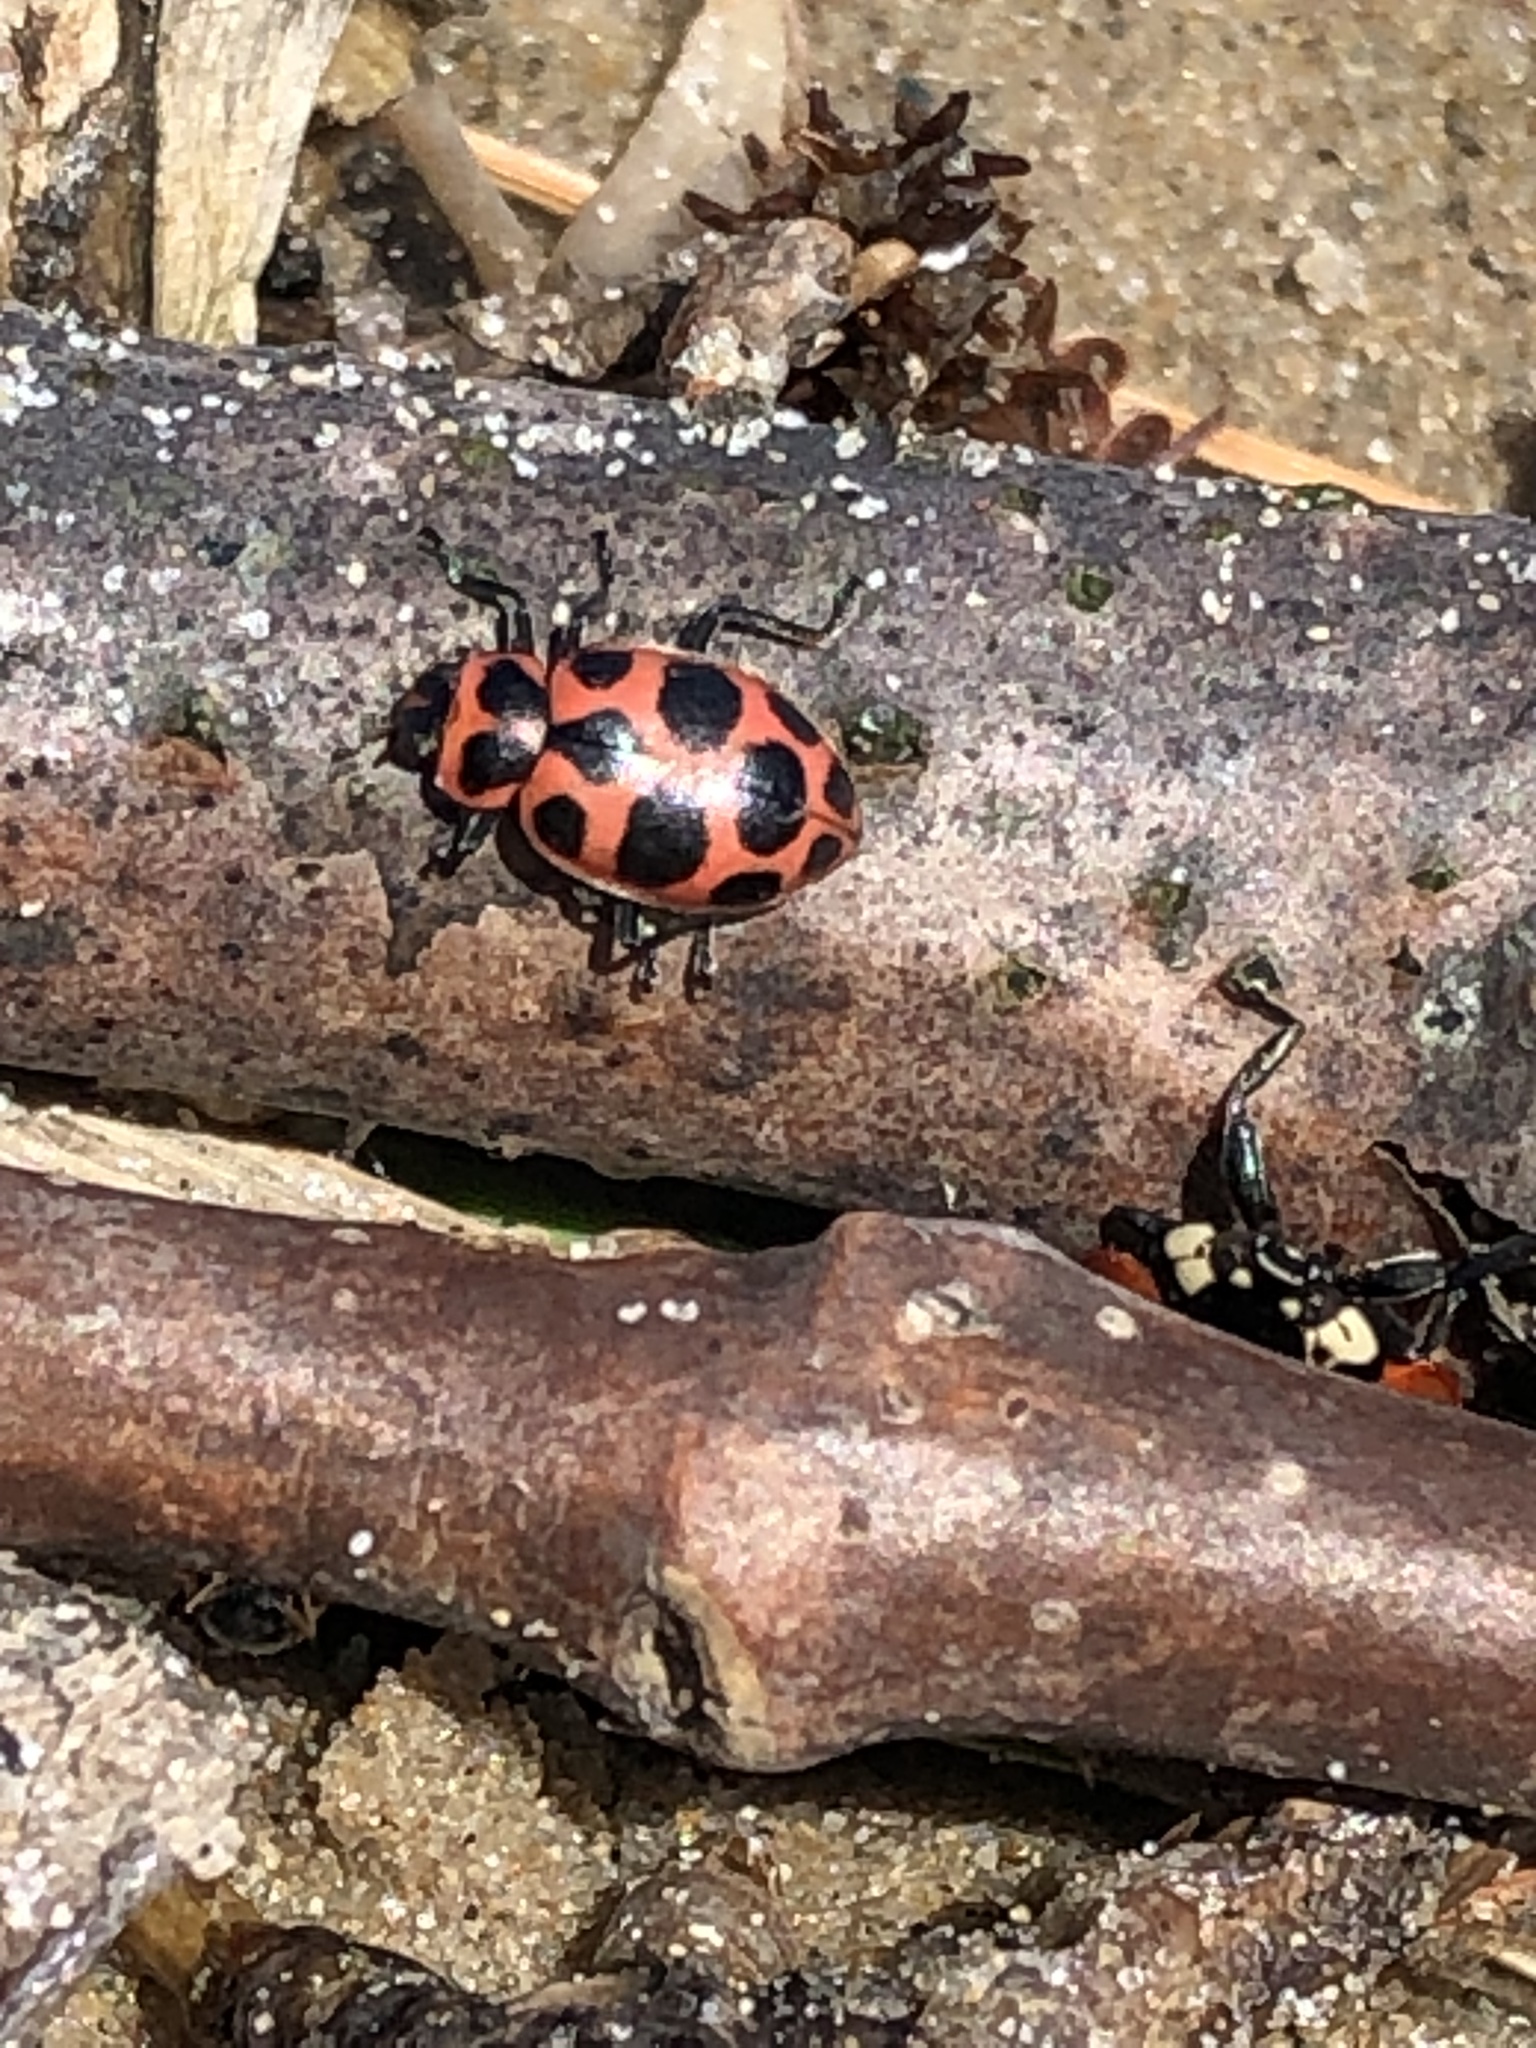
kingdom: Animalia
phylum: Arthropoda
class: Insecta
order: Coleoptera
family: Coccinellidae
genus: Coleomegilla
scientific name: Coleomegilla maculata
